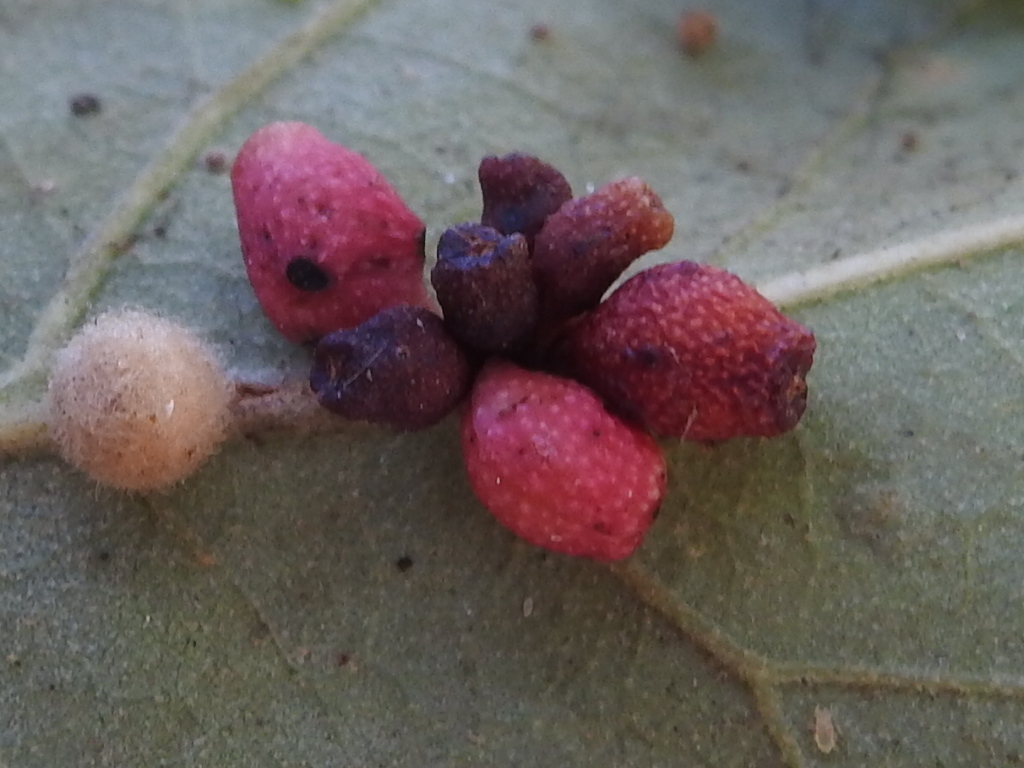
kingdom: Animalia
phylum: Arthropoda
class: Insecta
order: Hymenoptera
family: Cynipidae
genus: Andricus
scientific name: Andricus lustrans
